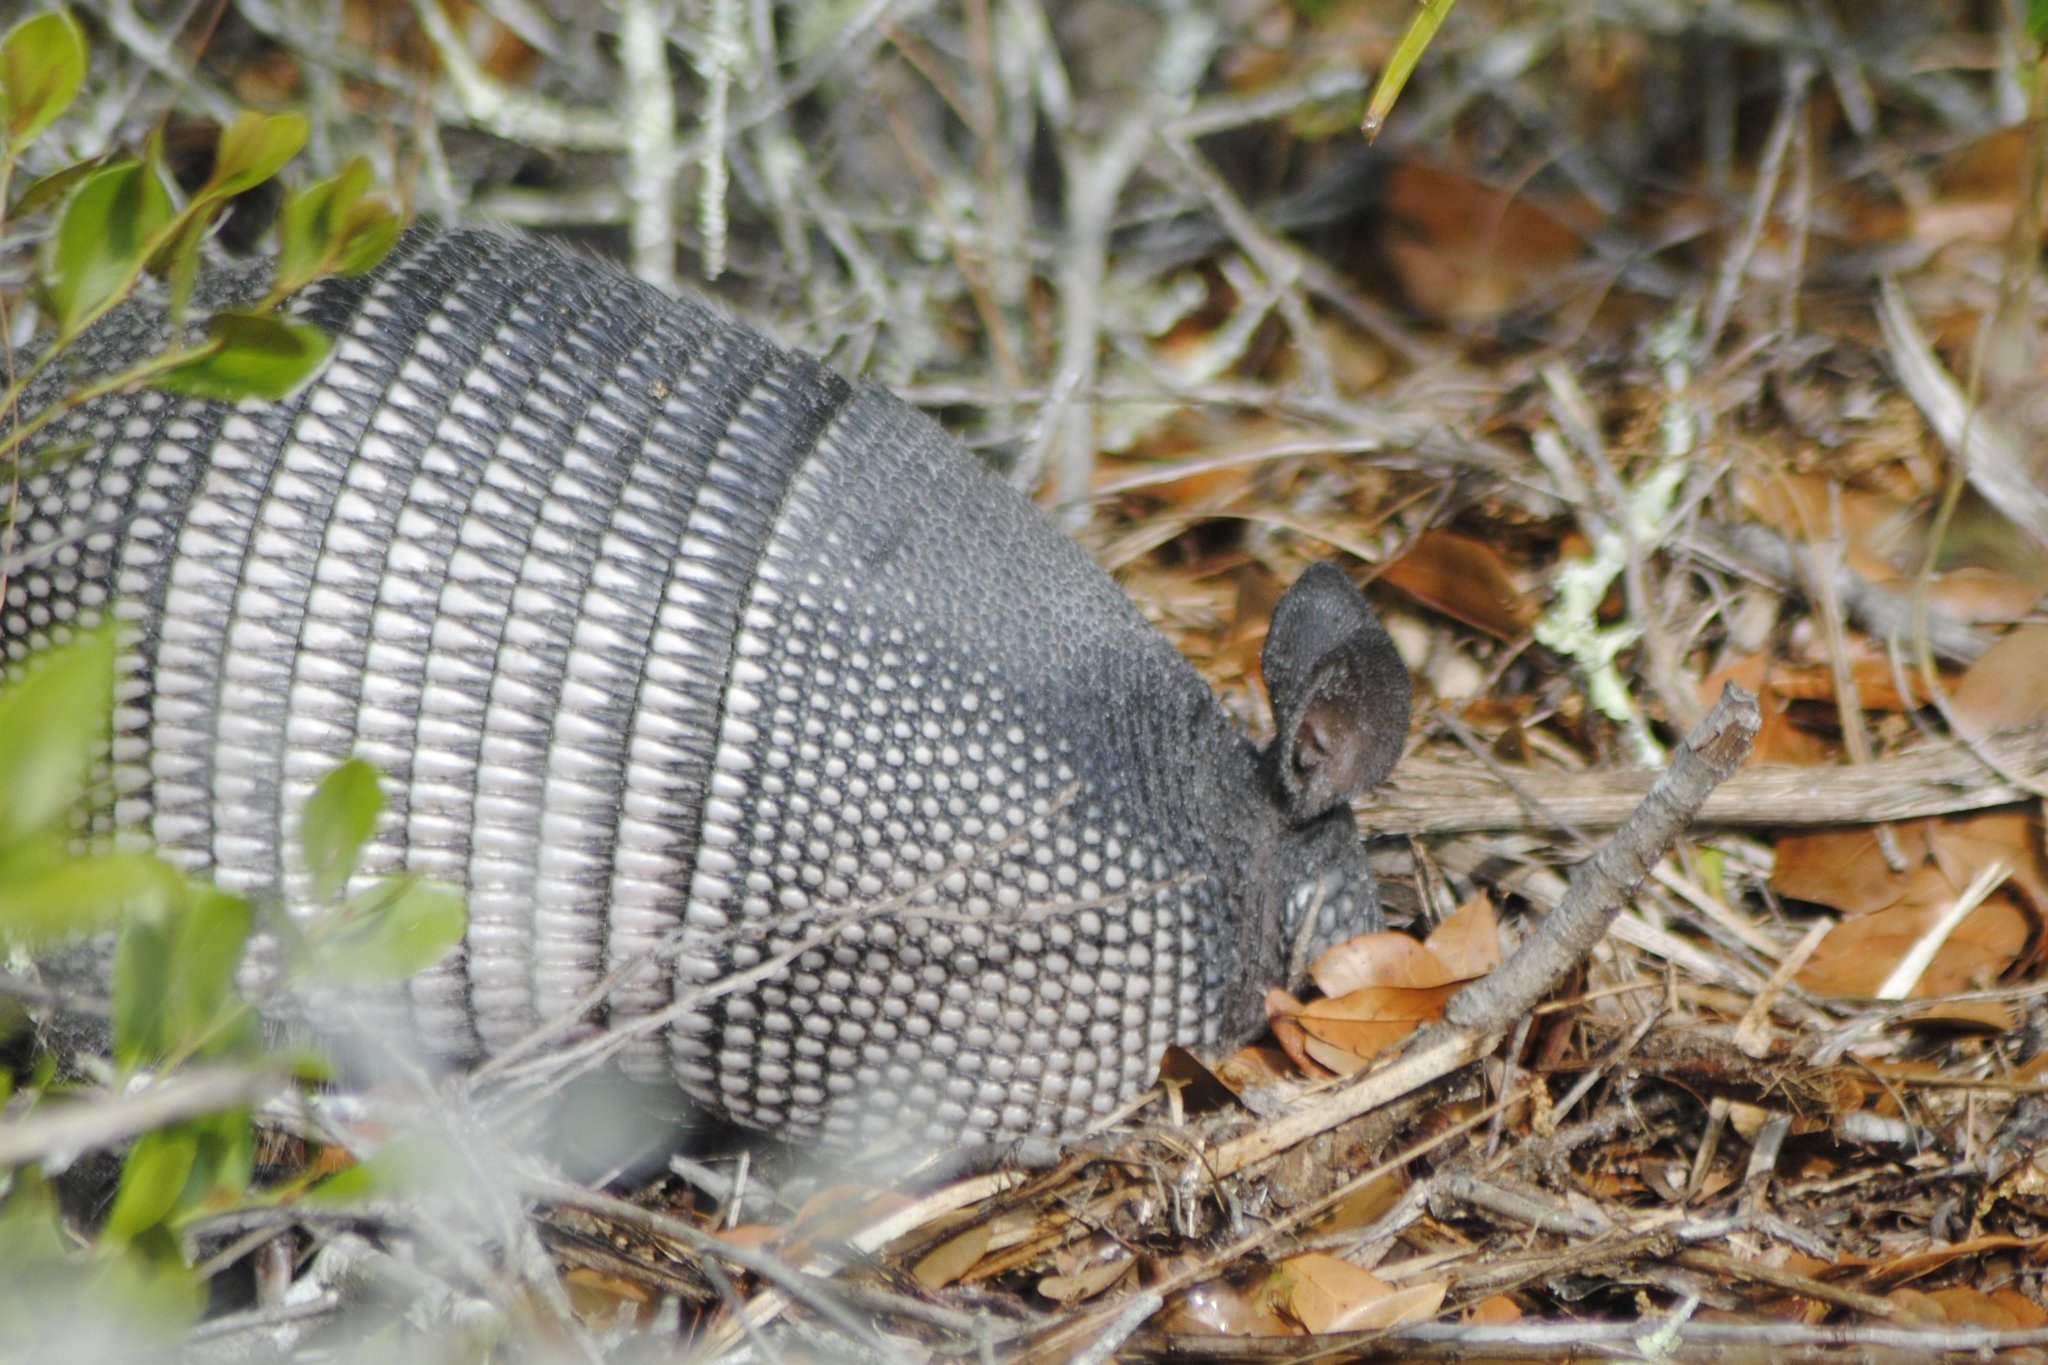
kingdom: Animalia
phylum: Chordata
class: Mammalia
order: Cingulata
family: Dasypodidae
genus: Dasypus
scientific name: Dasypus novemcinctus
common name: Nine-banded armadillo
